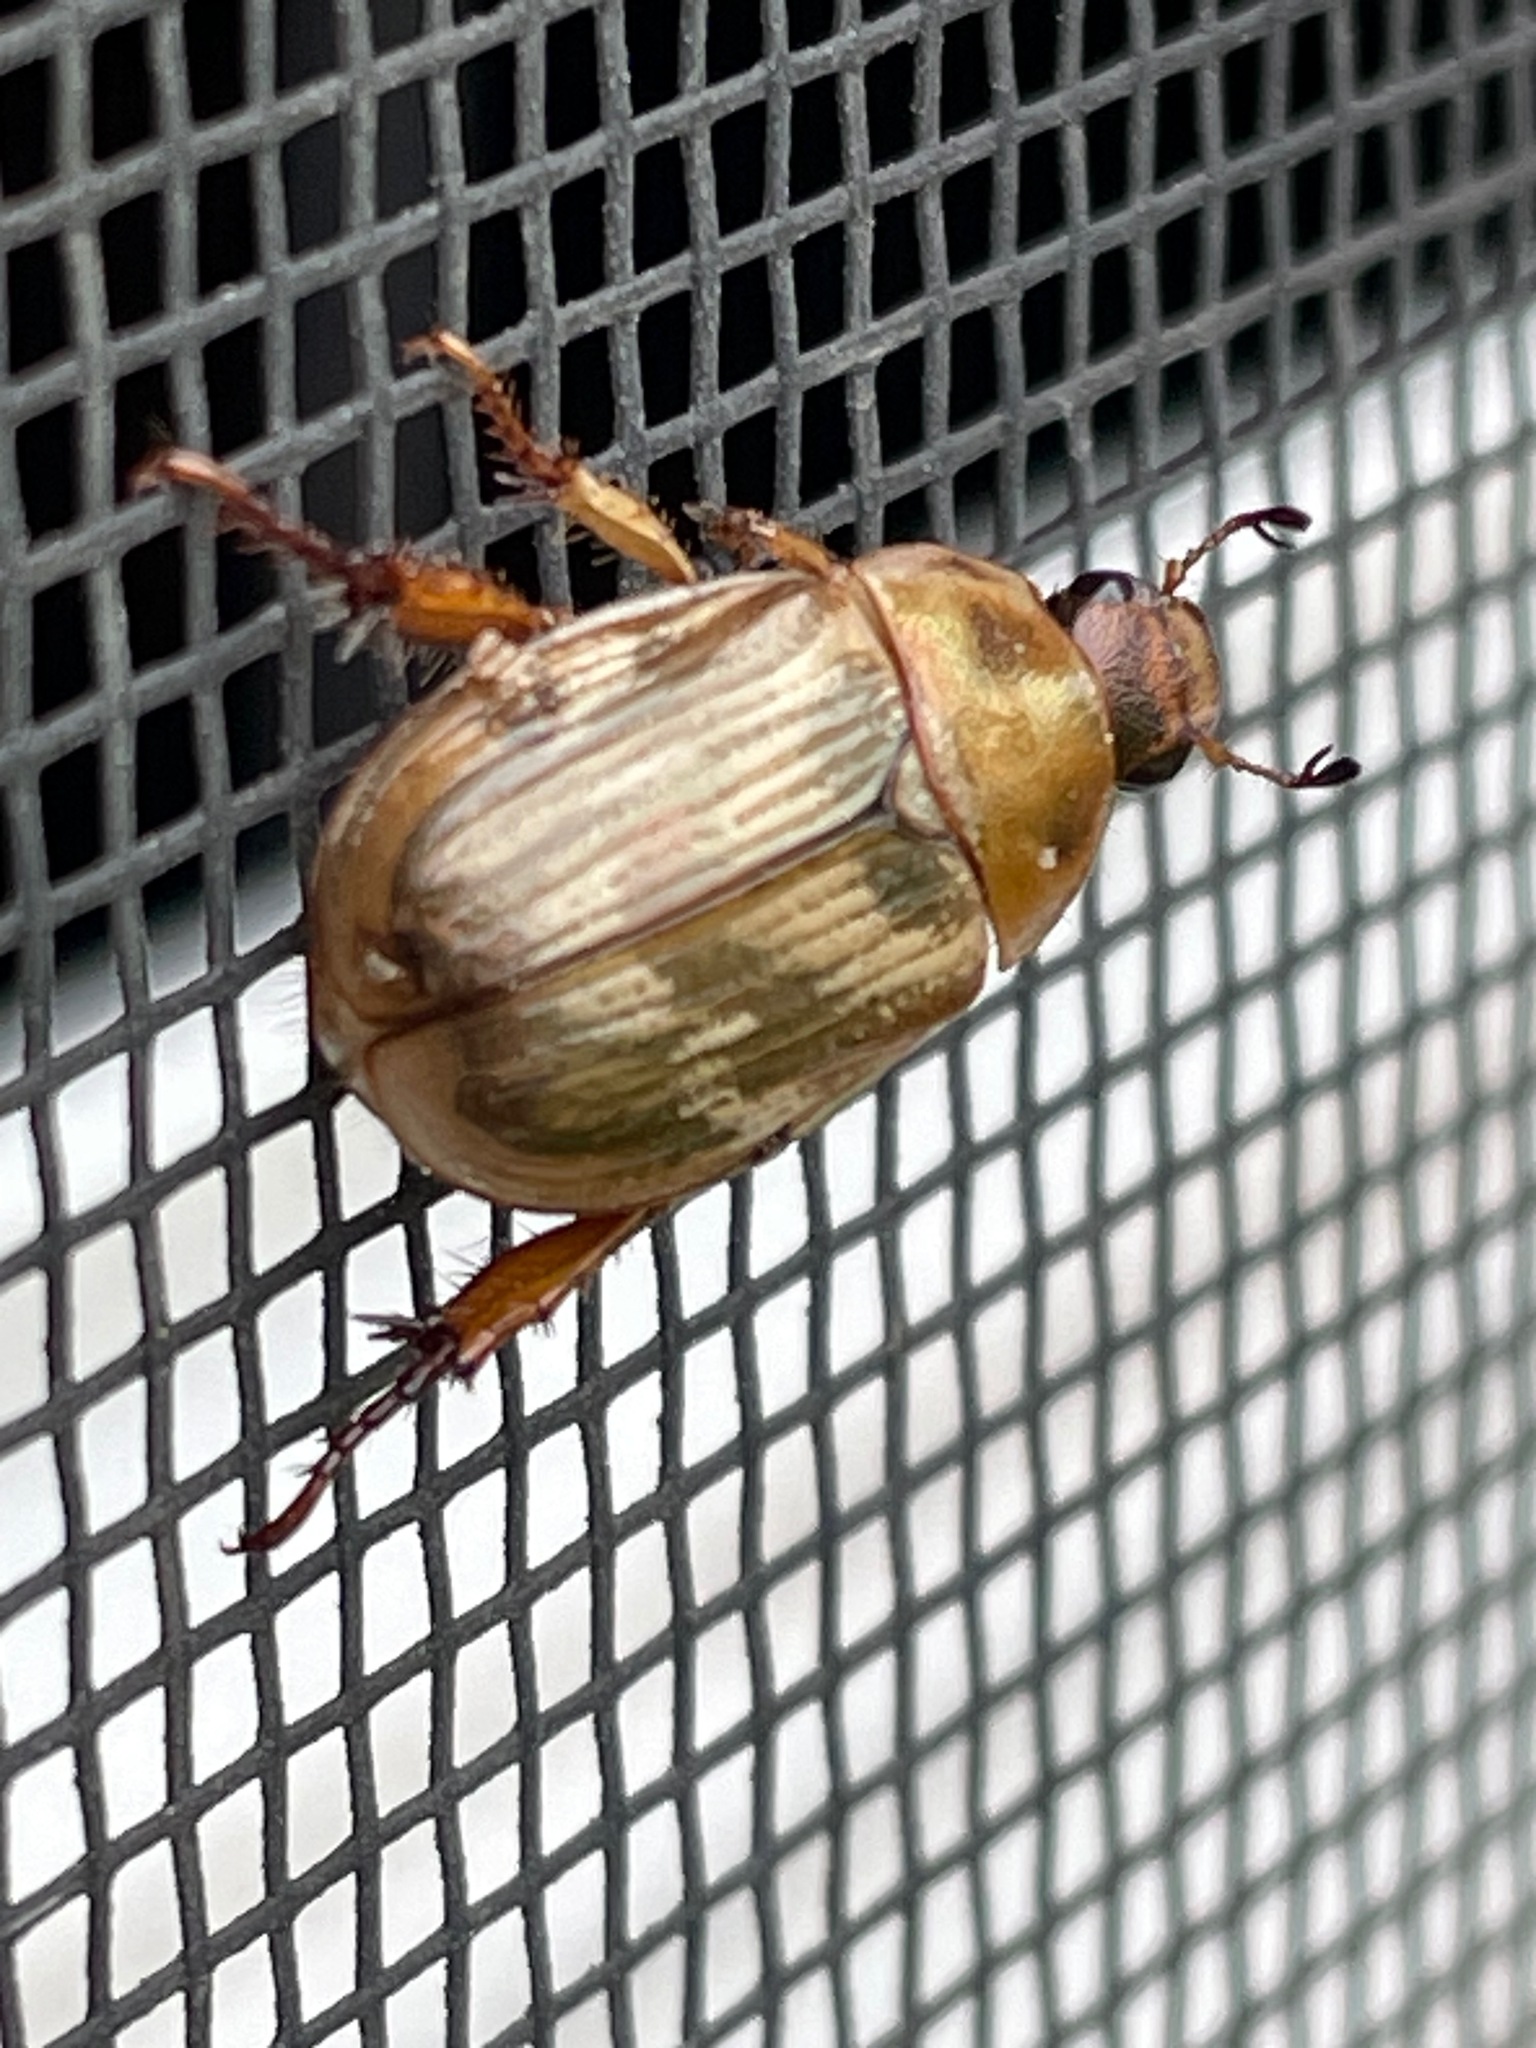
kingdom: Animalia
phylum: Arthropoda
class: Insecta
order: Coleoptera
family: Scarabaeidae
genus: Exomala
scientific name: Exomala orientalis
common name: Oriental beetle
